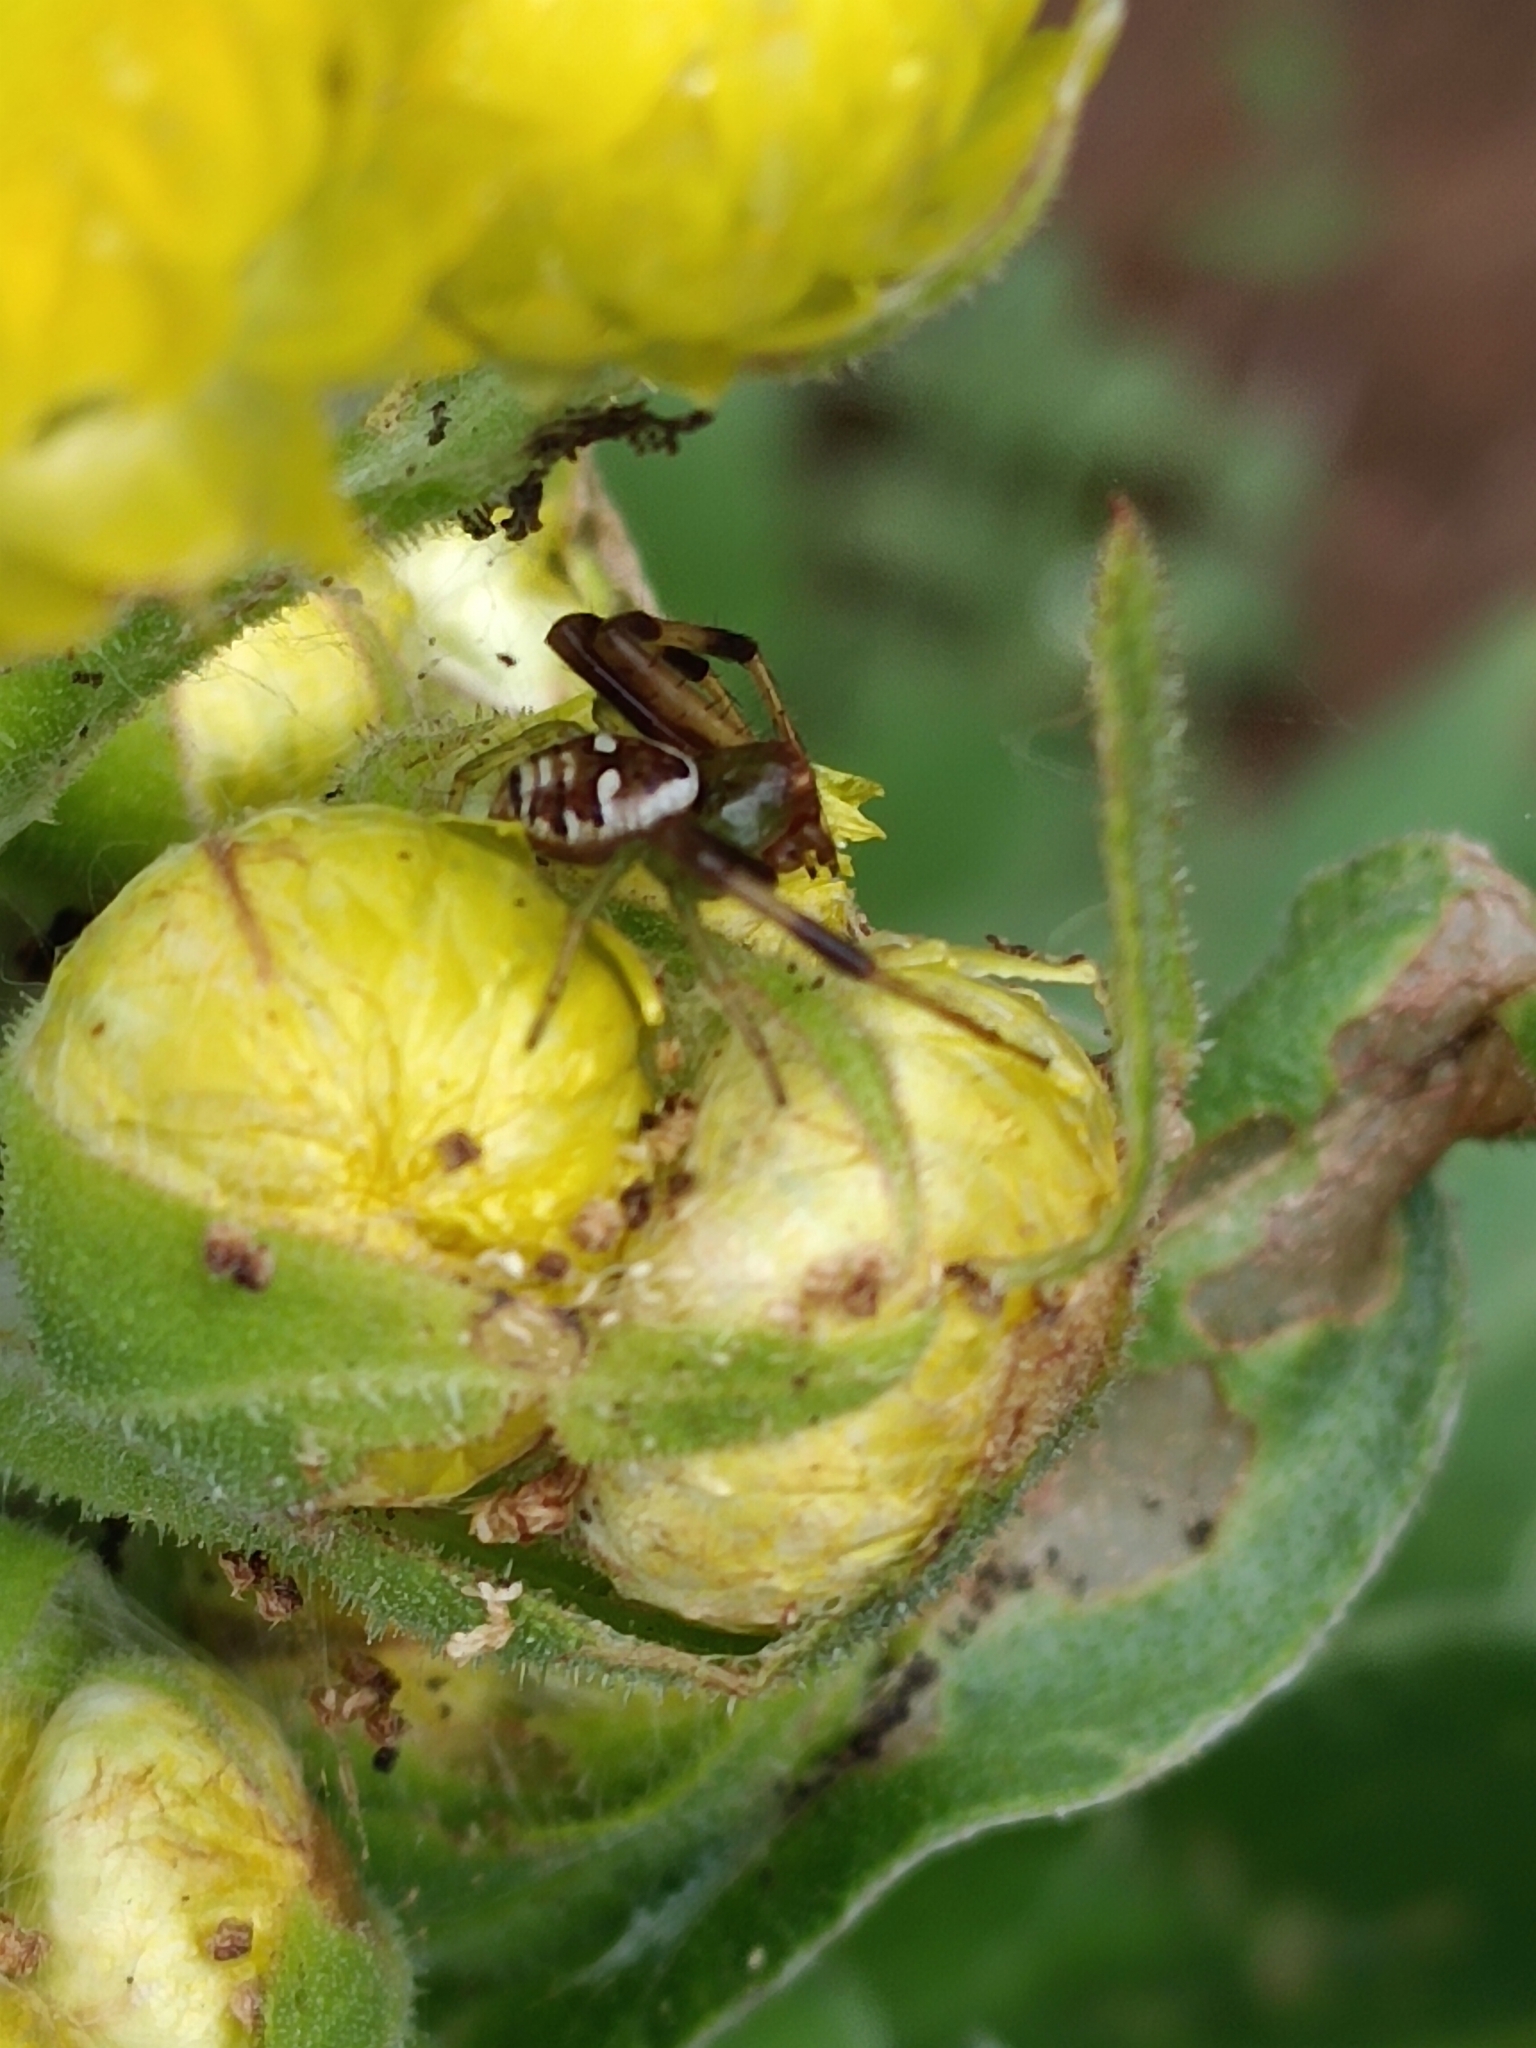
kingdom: Animalia
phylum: Arthropoda
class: Arachnida
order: Araneae
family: Thomisidae
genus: Synema
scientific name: Synema imitatrix
